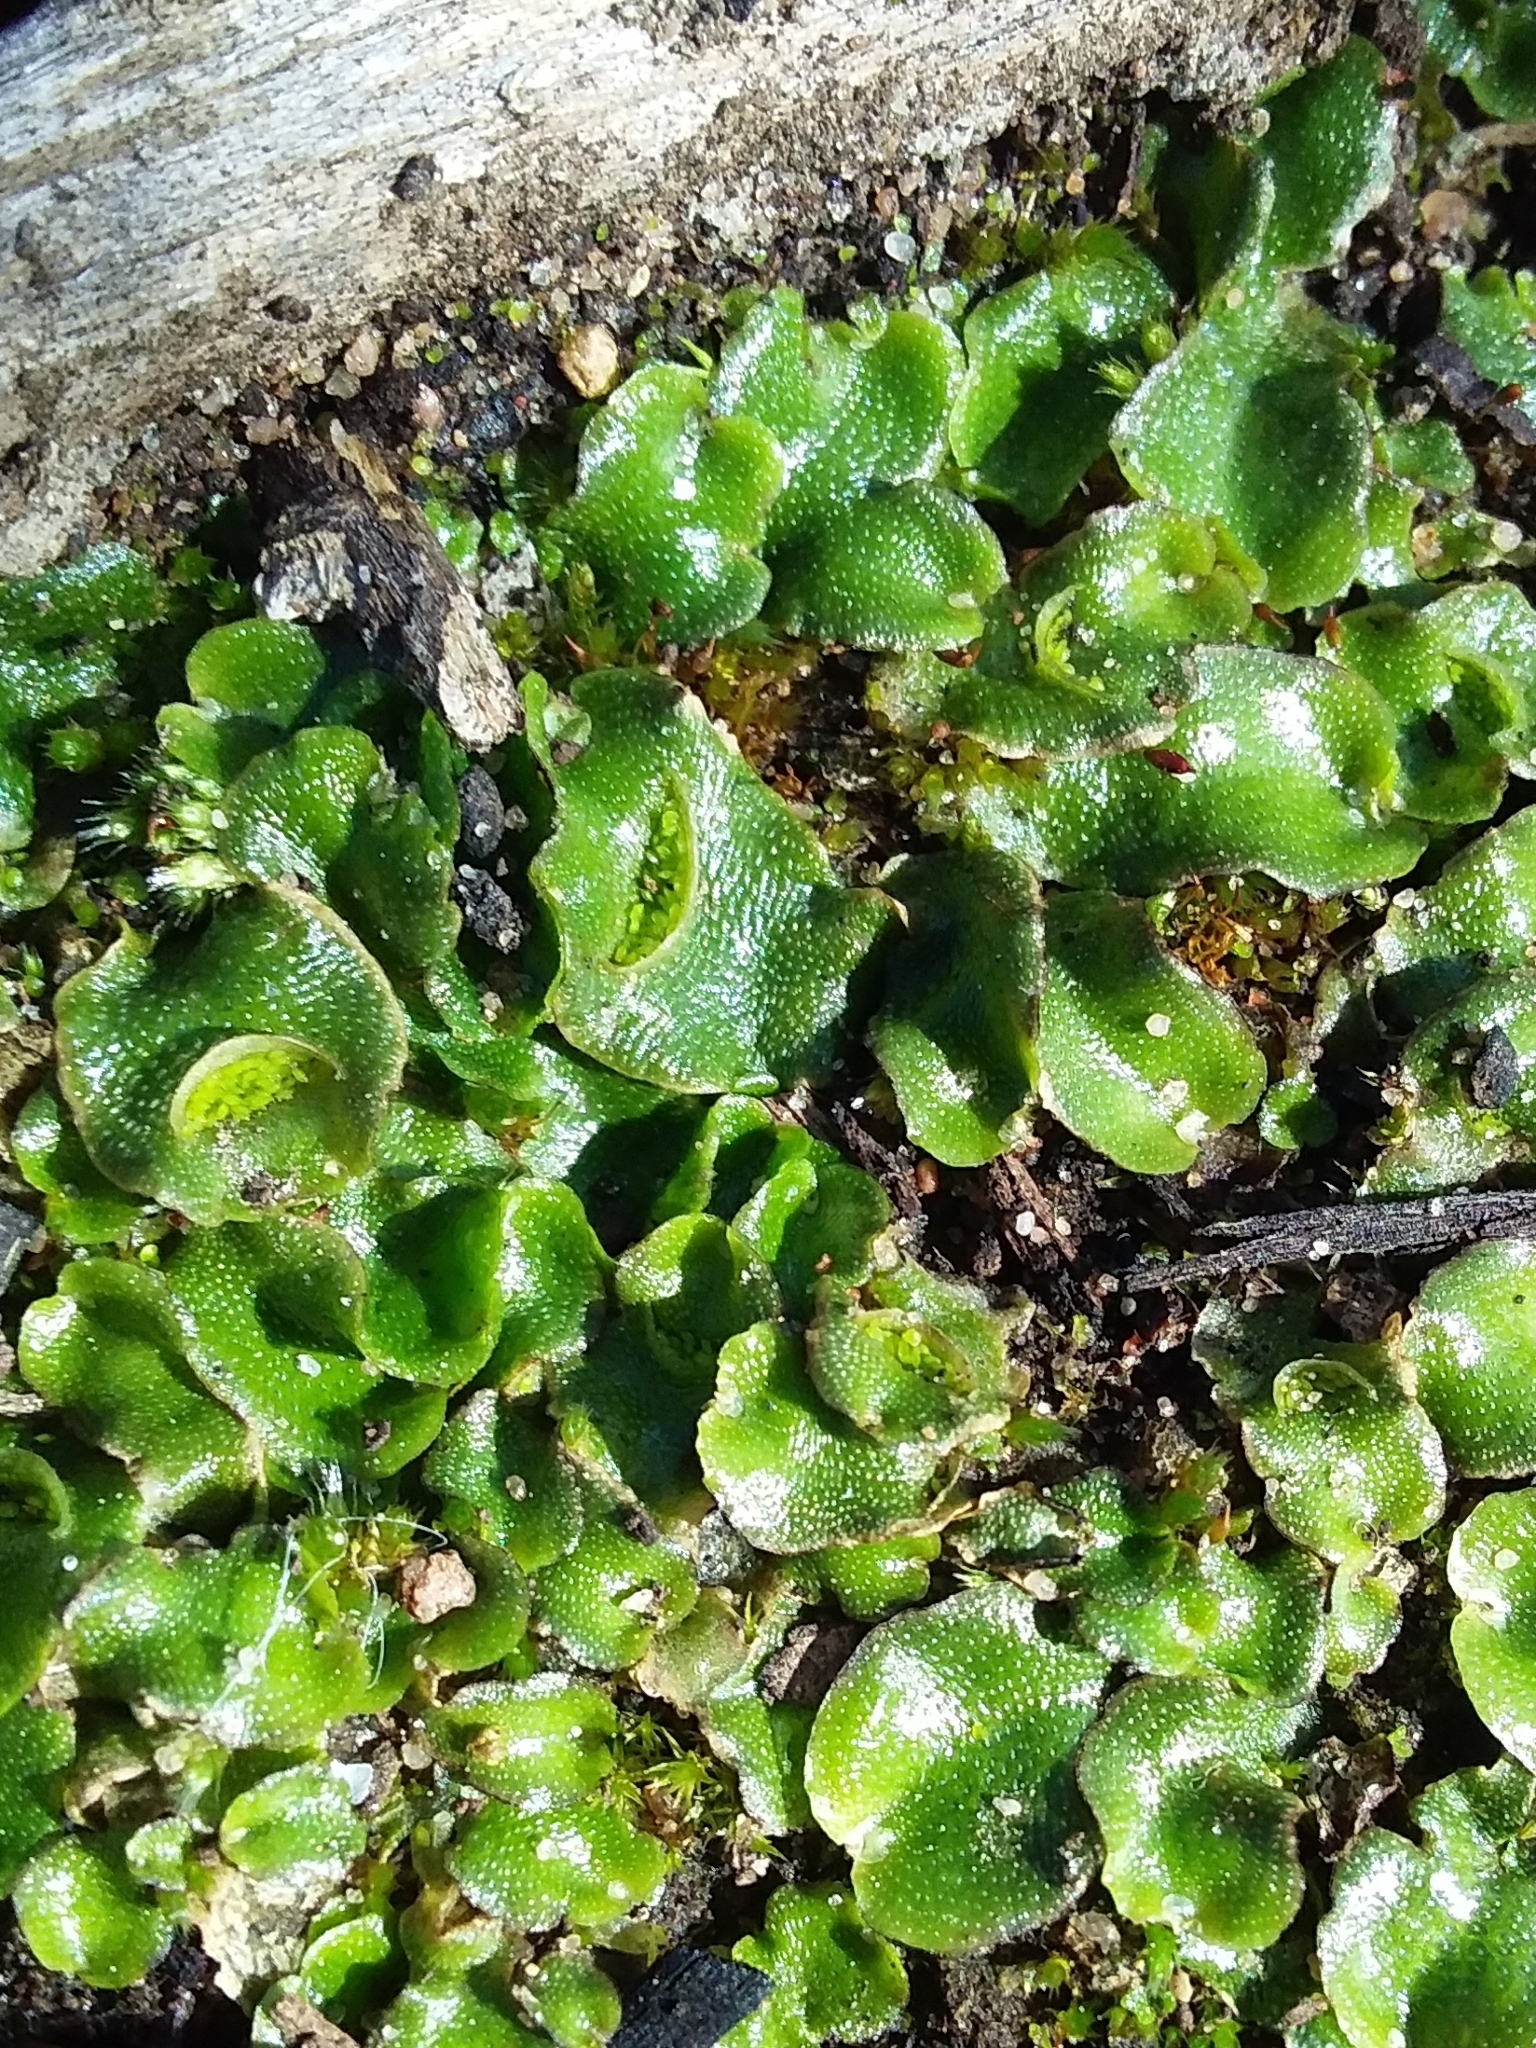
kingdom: Plantae
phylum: Marchantiophyta
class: Marchantiopsida
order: Lunulariales
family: Lunulariaceae
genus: Lunularia
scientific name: Lunularia cruciata
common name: Crescent-cup liverwort
